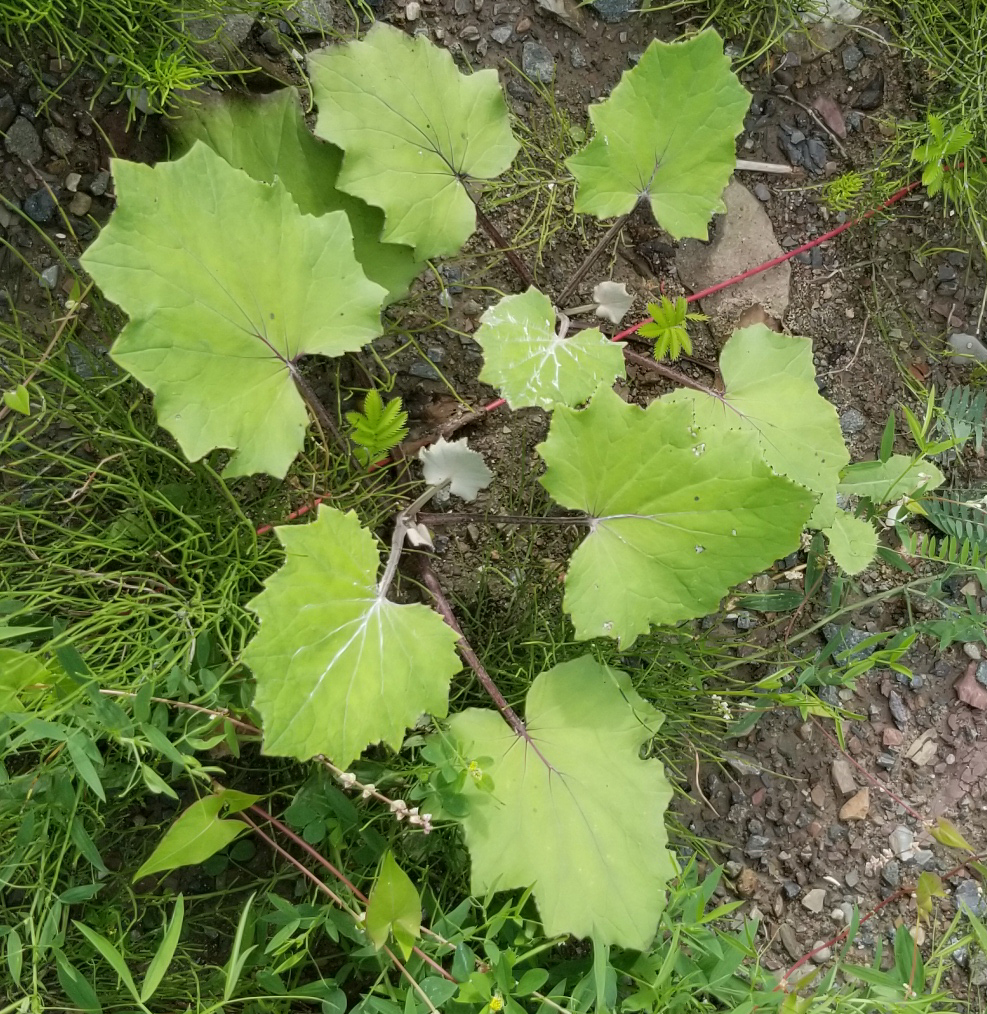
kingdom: Plantae
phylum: Tracheophyta
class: Magnoliopsida
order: Asterales
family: Asteraceae
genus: Tussilago
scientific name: Tussilago farfara
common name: Coltsfoot
